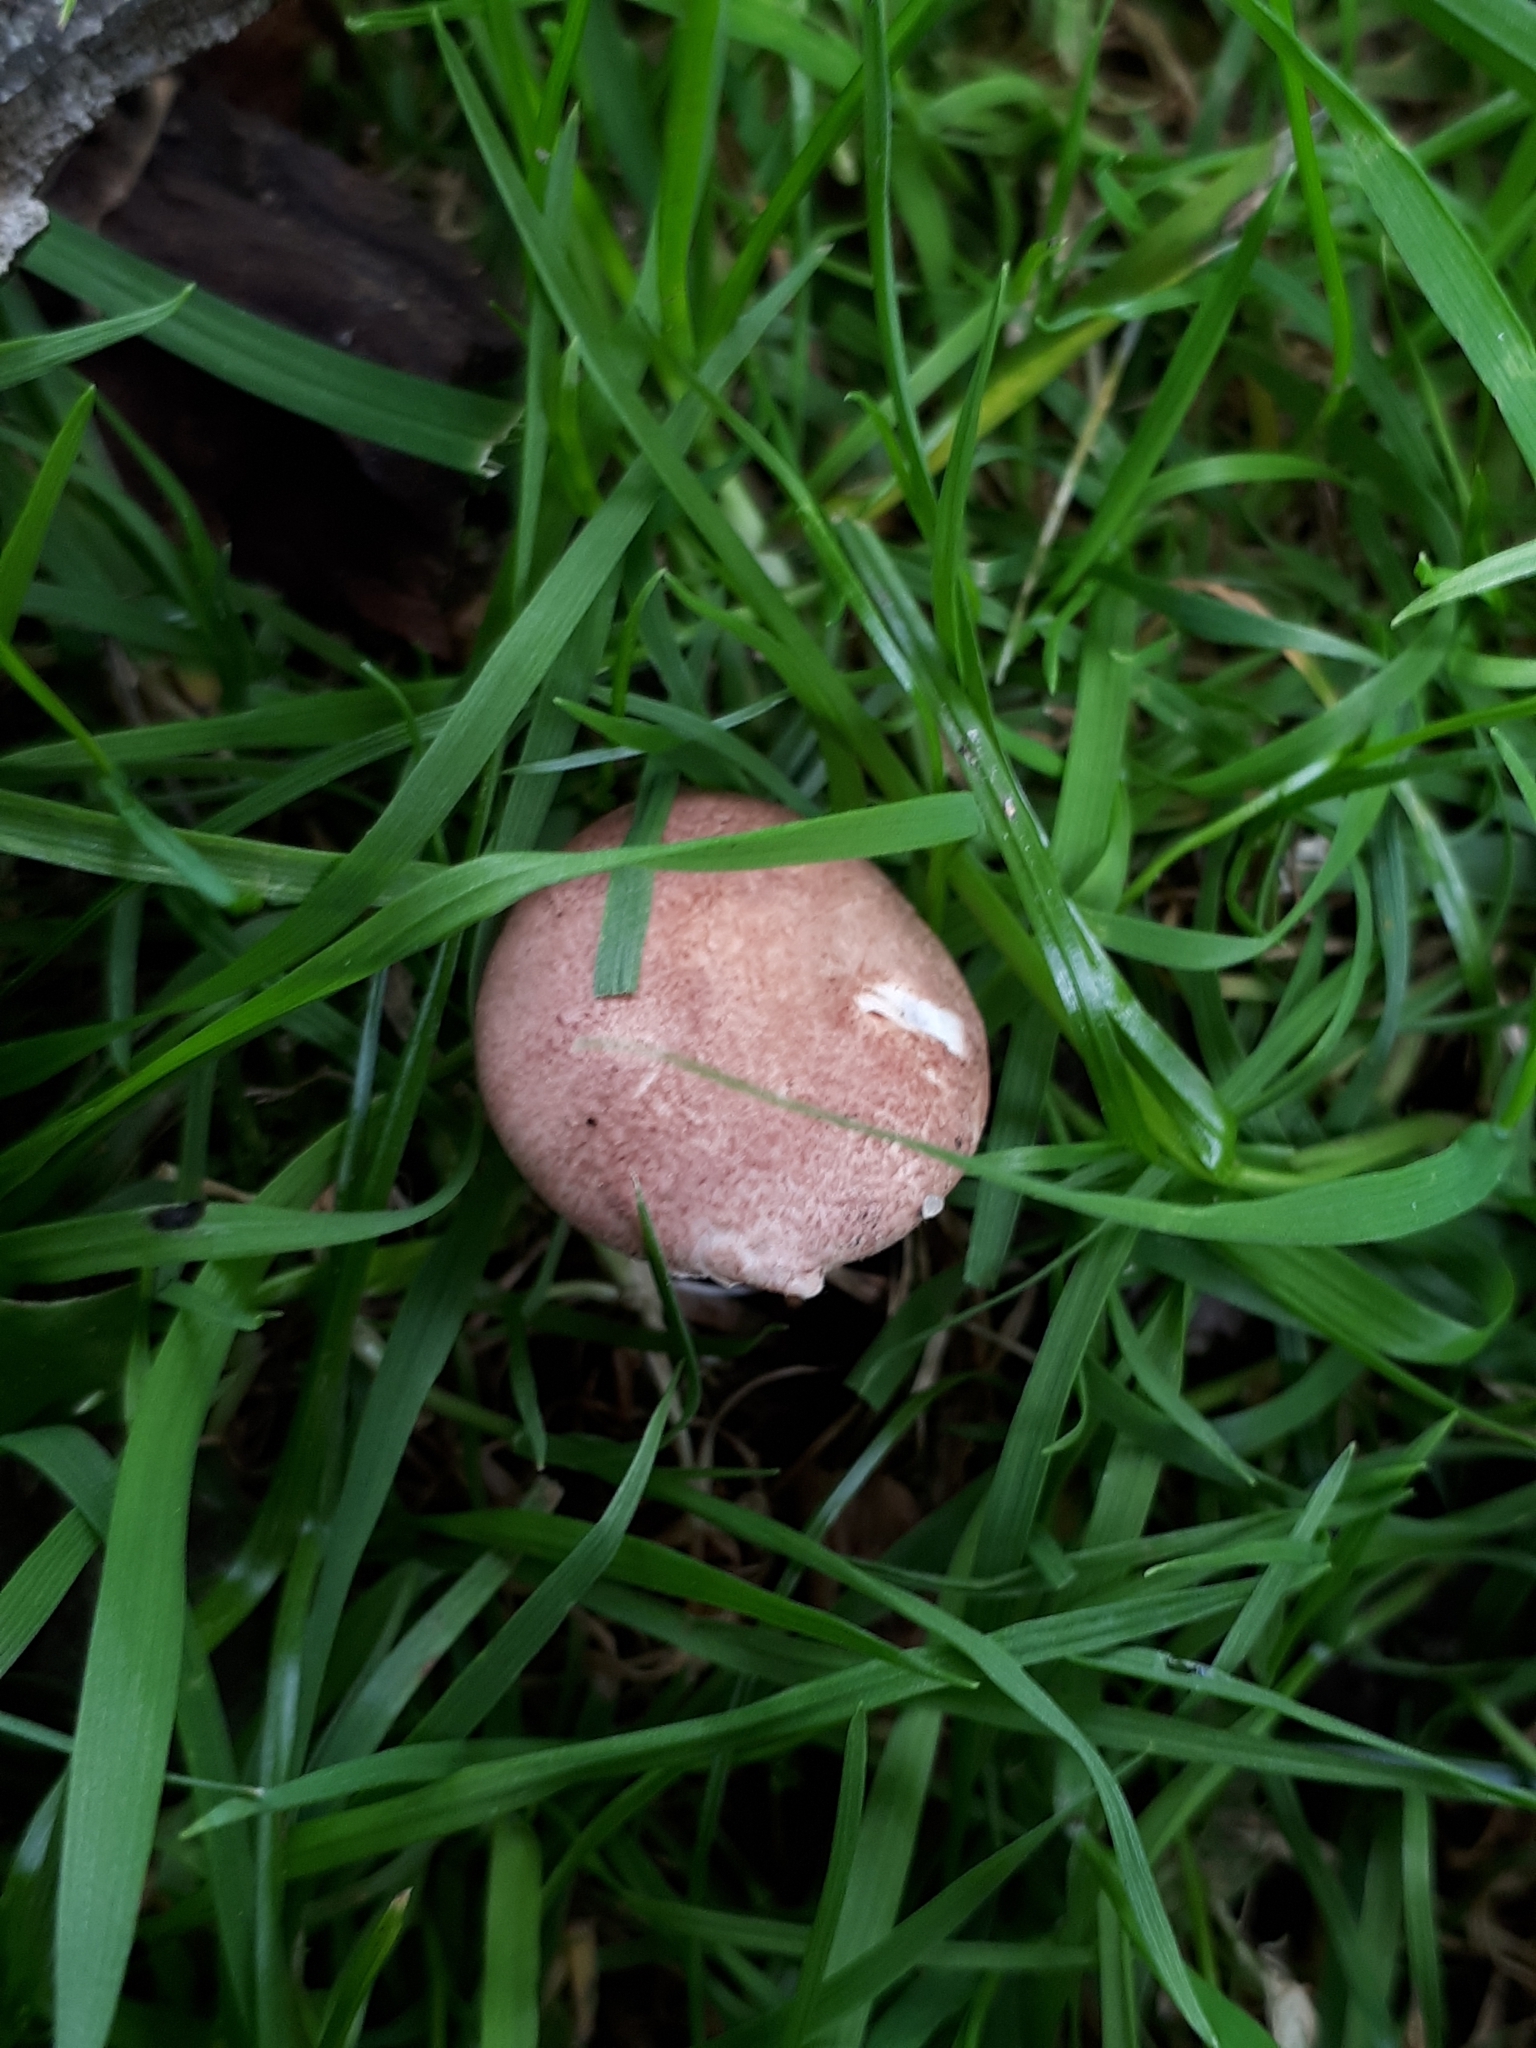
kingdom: Fungi
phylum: Basidiomycota
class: Agaricomycetes
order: Agaricales
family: Agaricaceae
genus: Lepiota
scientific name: Lepiota subincarnata
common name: Fatal dapperling
